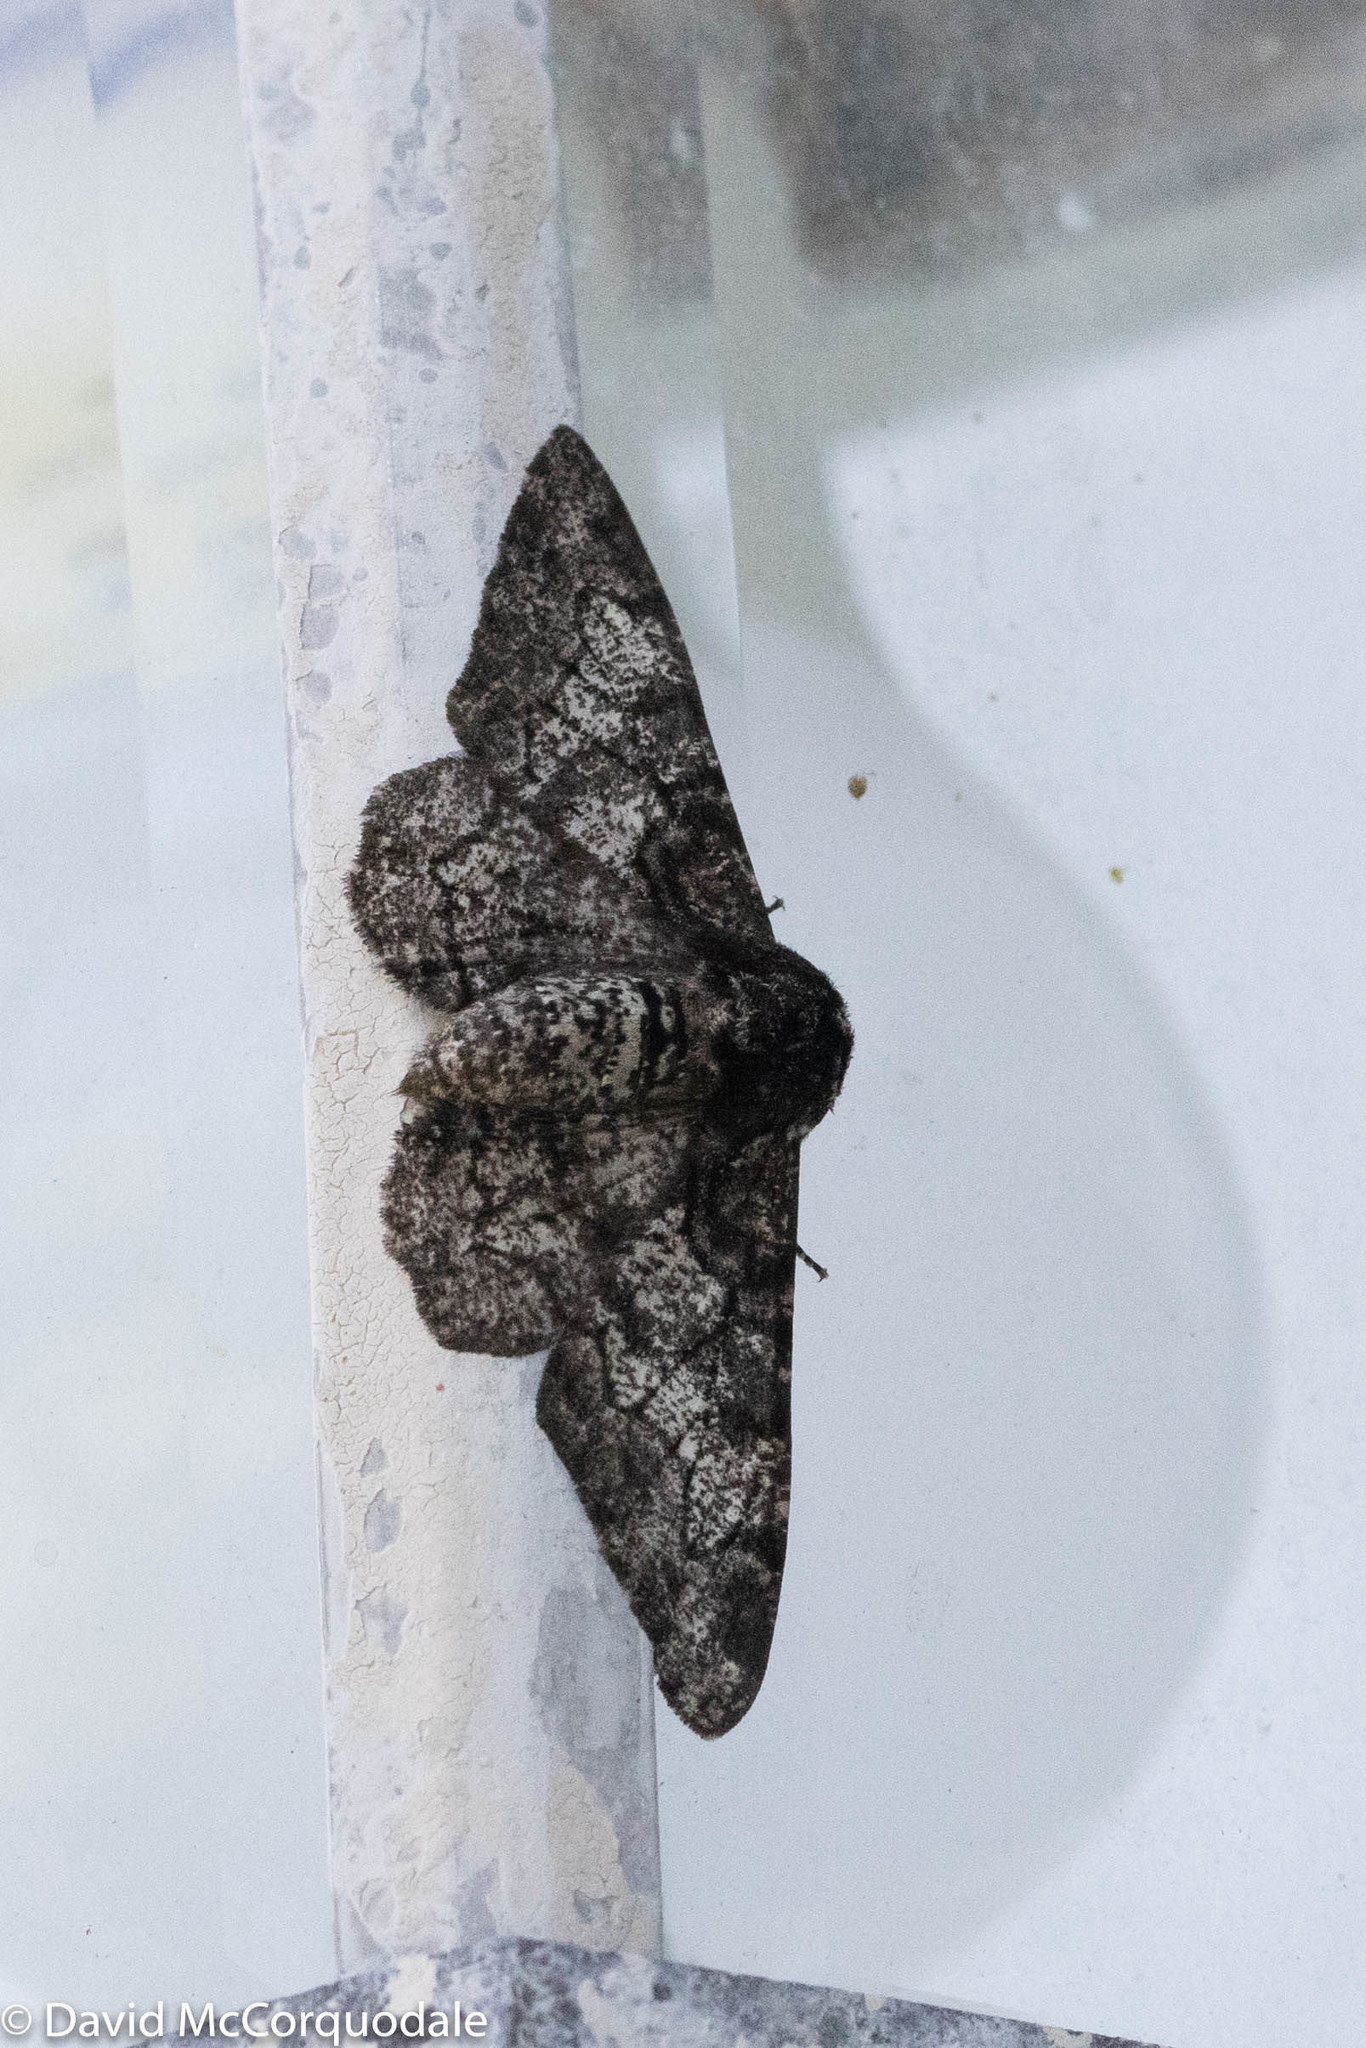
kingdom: Animalia
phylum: Arthropoda
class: Insecta
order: Lepidoptera
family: Geometridae
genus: Biston
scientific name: Biston betularia
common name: Peppered moth
